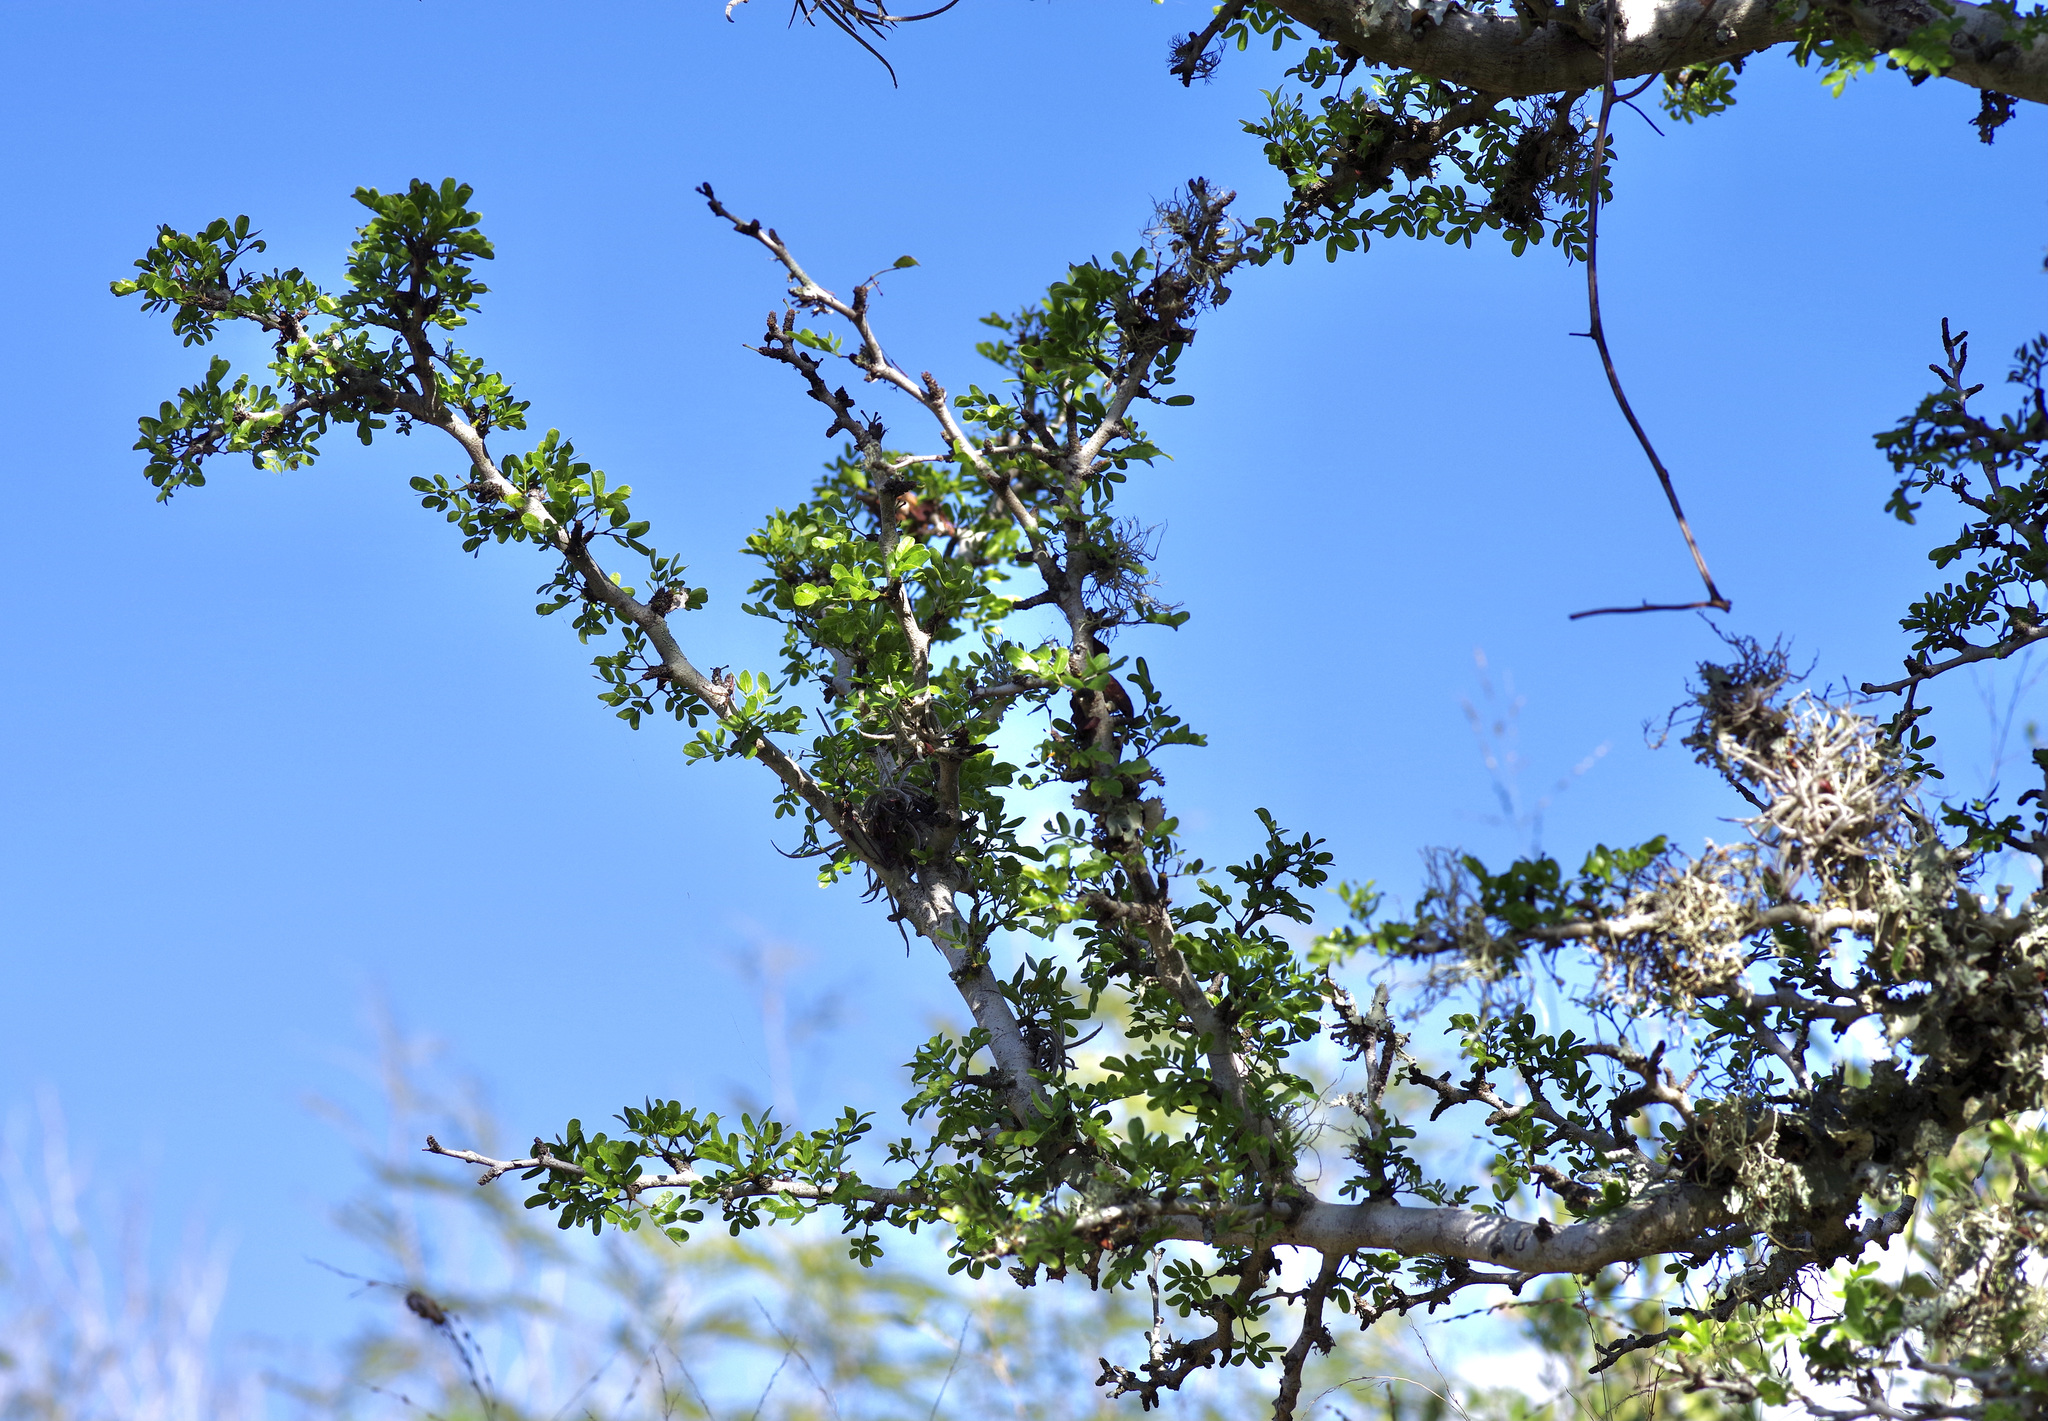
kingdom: Plantae
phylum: Tracheophyta
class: Magnoliopsida
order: Fabales
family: Fabaceae
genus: Vachellia
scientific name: Vachellia rigidula
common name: Blackbrush
